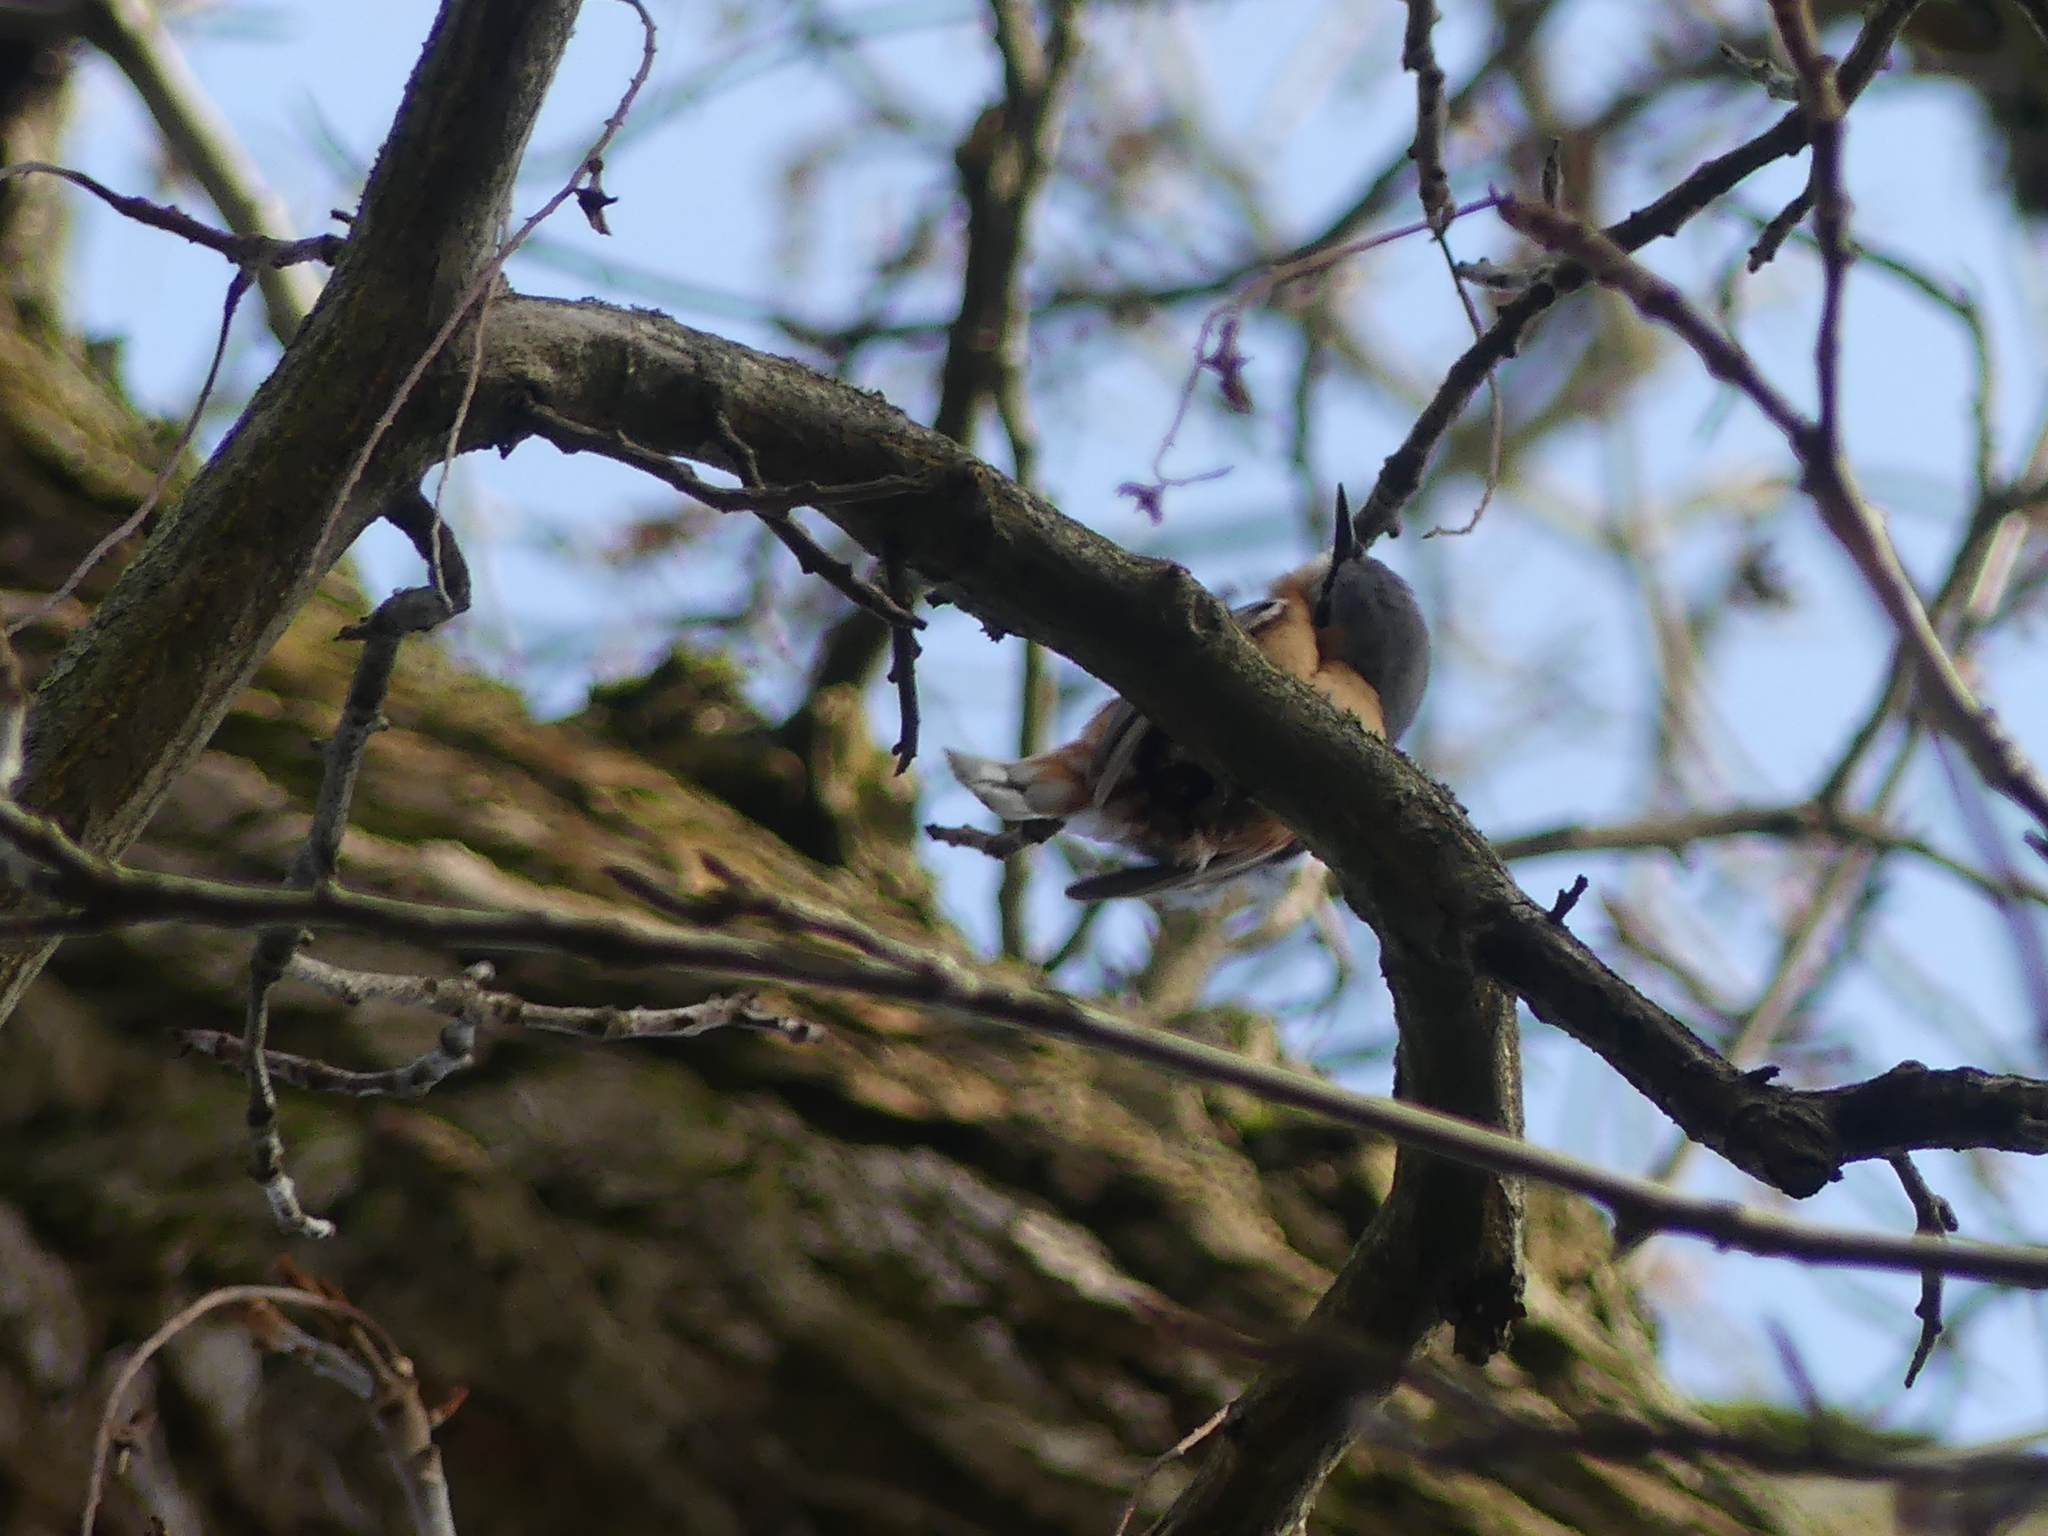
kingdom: Animalia
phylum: Chordata
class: Aves
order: Passeriformes
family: Sittidae
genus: Sitta
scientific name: Sitta europaea
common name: Eurasian nuthatch
